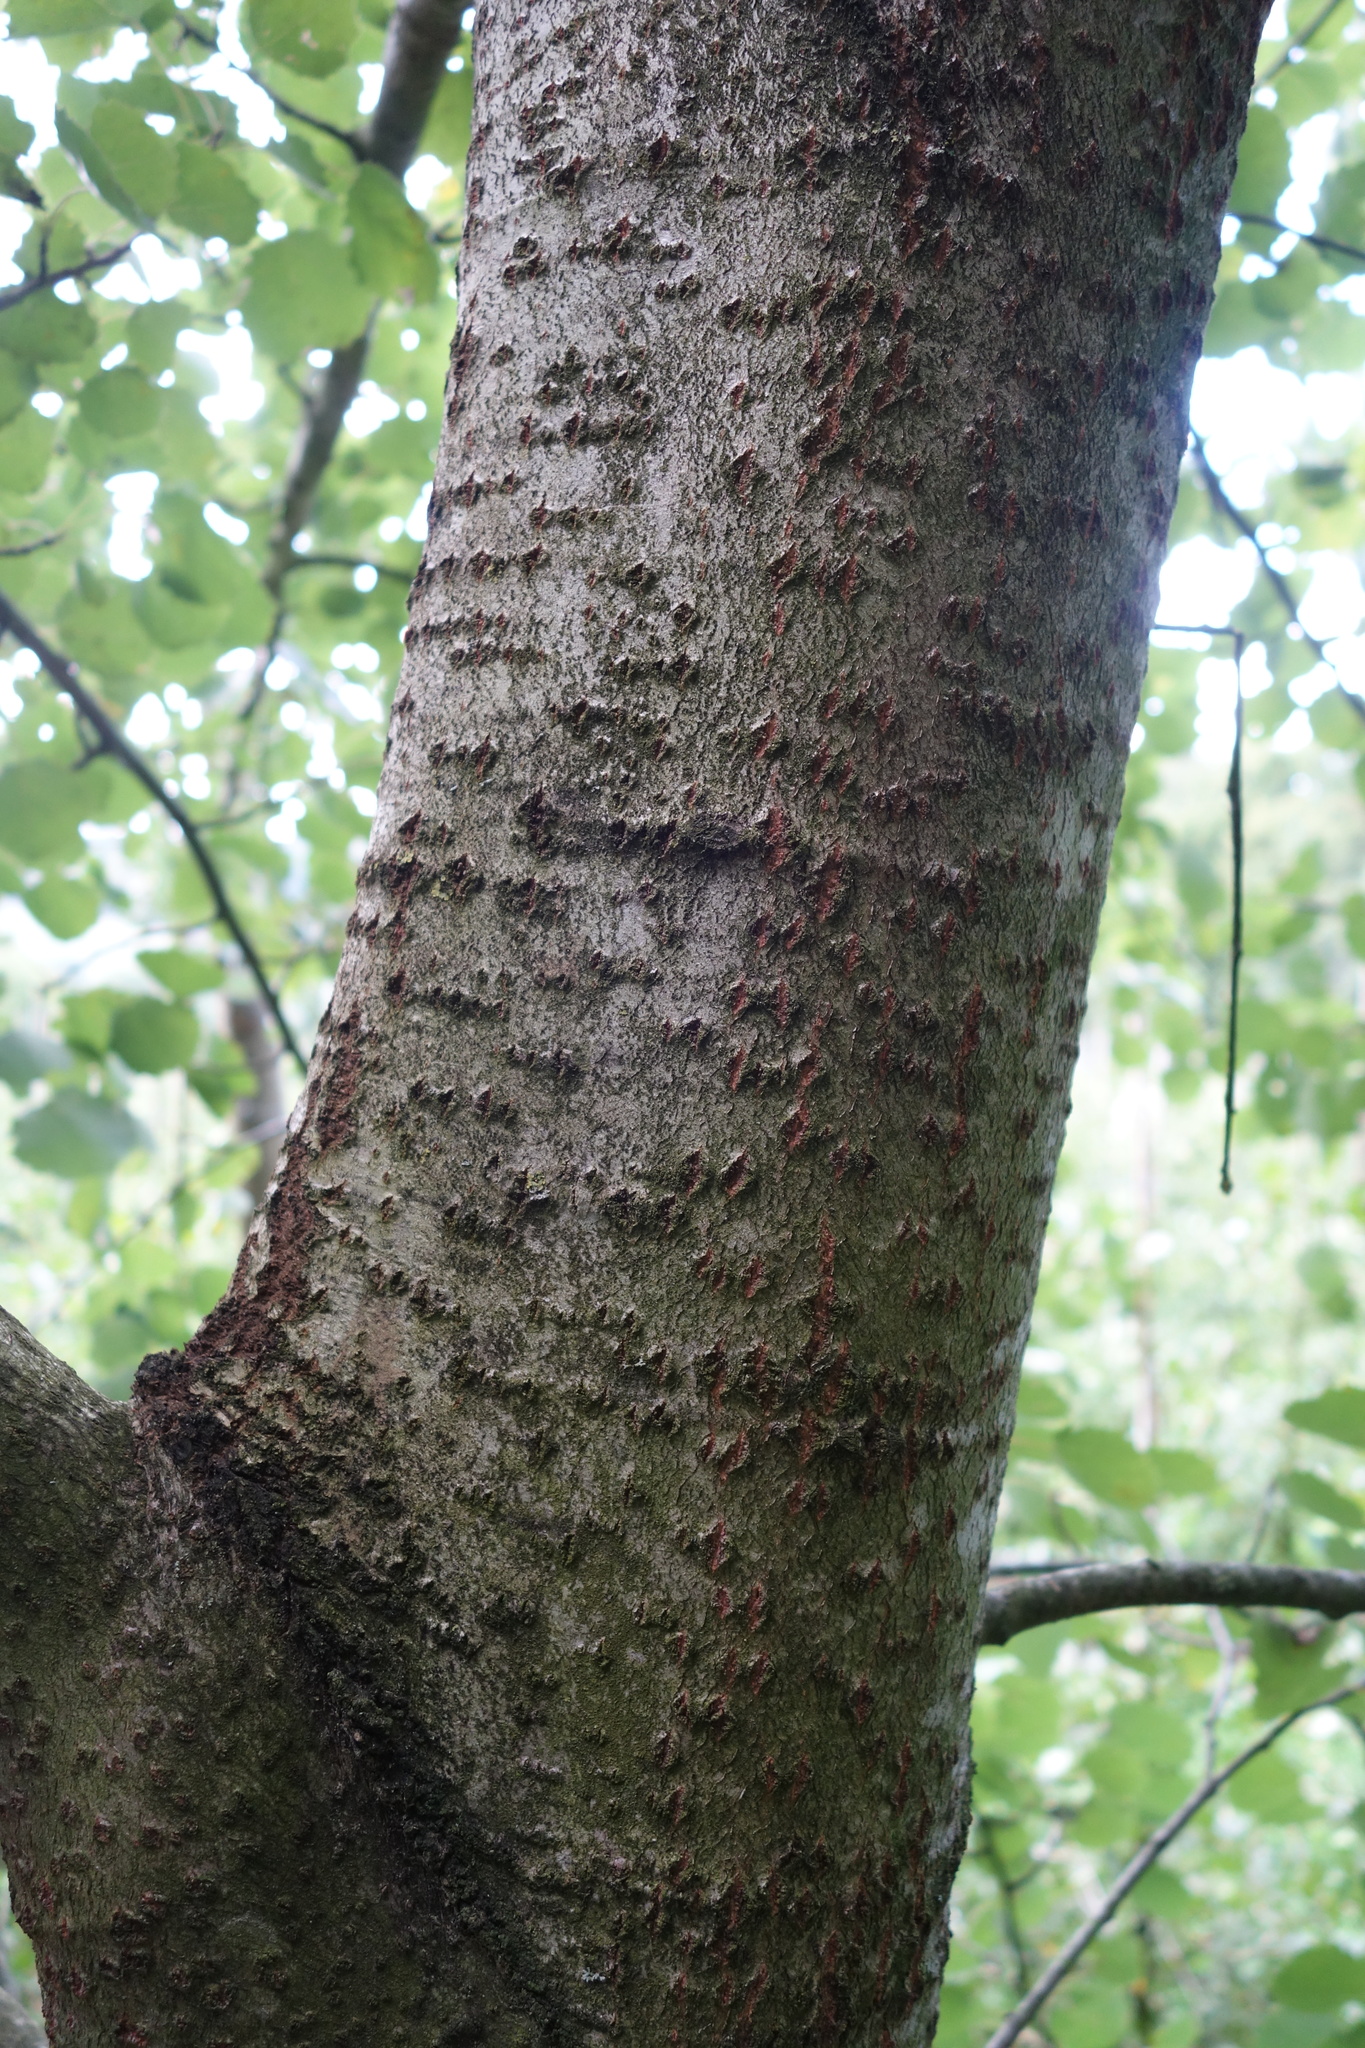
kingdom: Plantae
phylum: Tracheophyta
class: Magnoliopsida
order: Malpighiales
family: Salicaceae
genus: Populus
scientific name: Populus tremula
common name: European aspen
